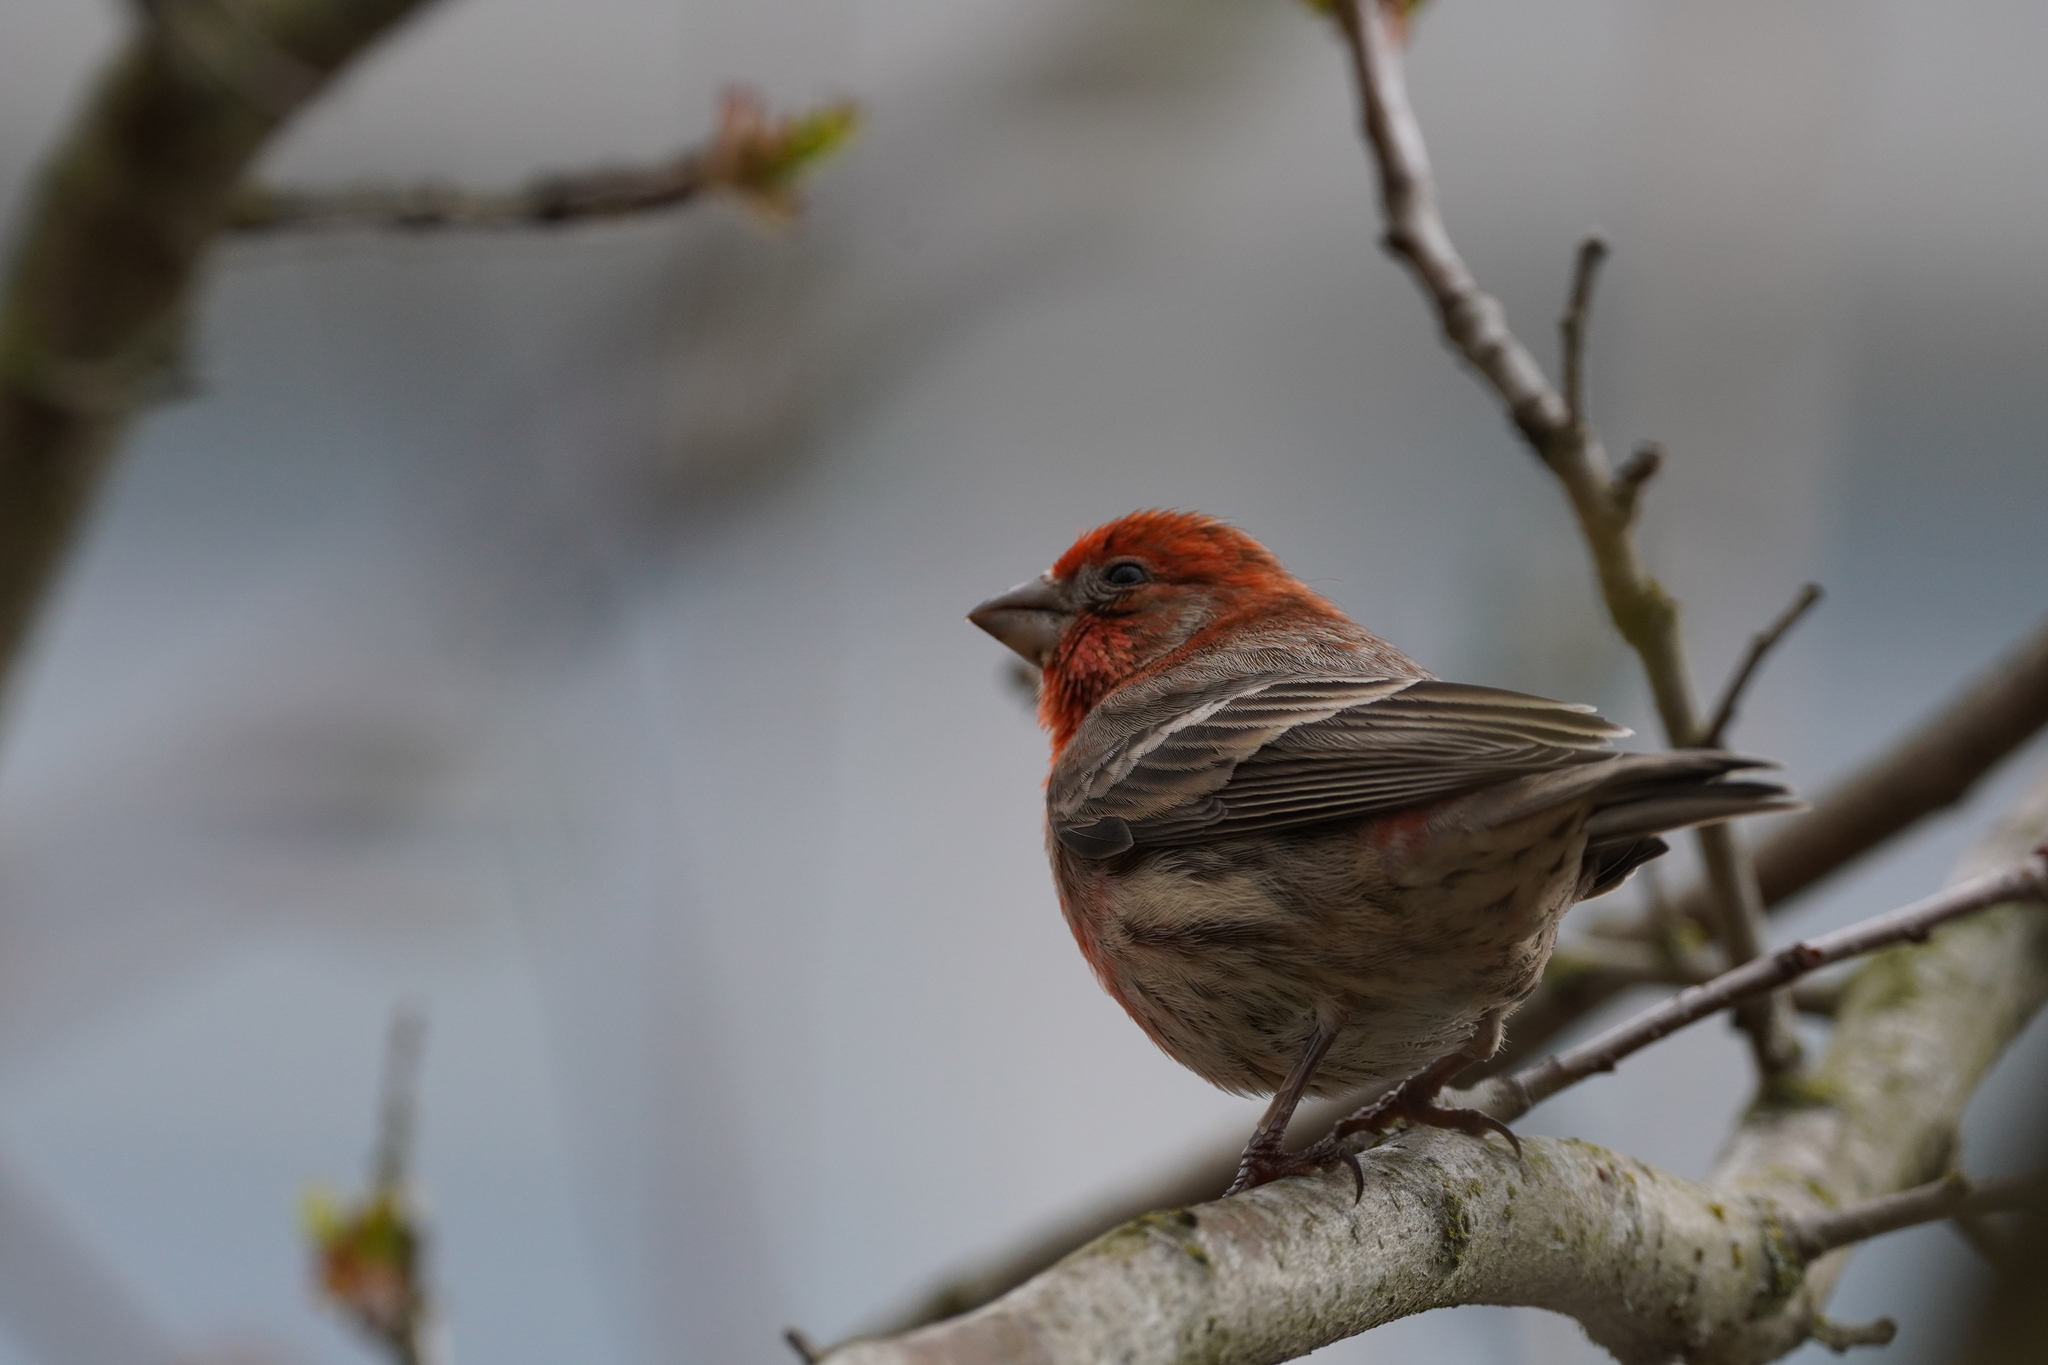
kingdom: Animalia
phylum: Chordata
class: Aves
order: Passeriformes
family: Fringillidae
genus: Haemorhous
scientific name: Haemorhous mexicanus
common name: House finch
